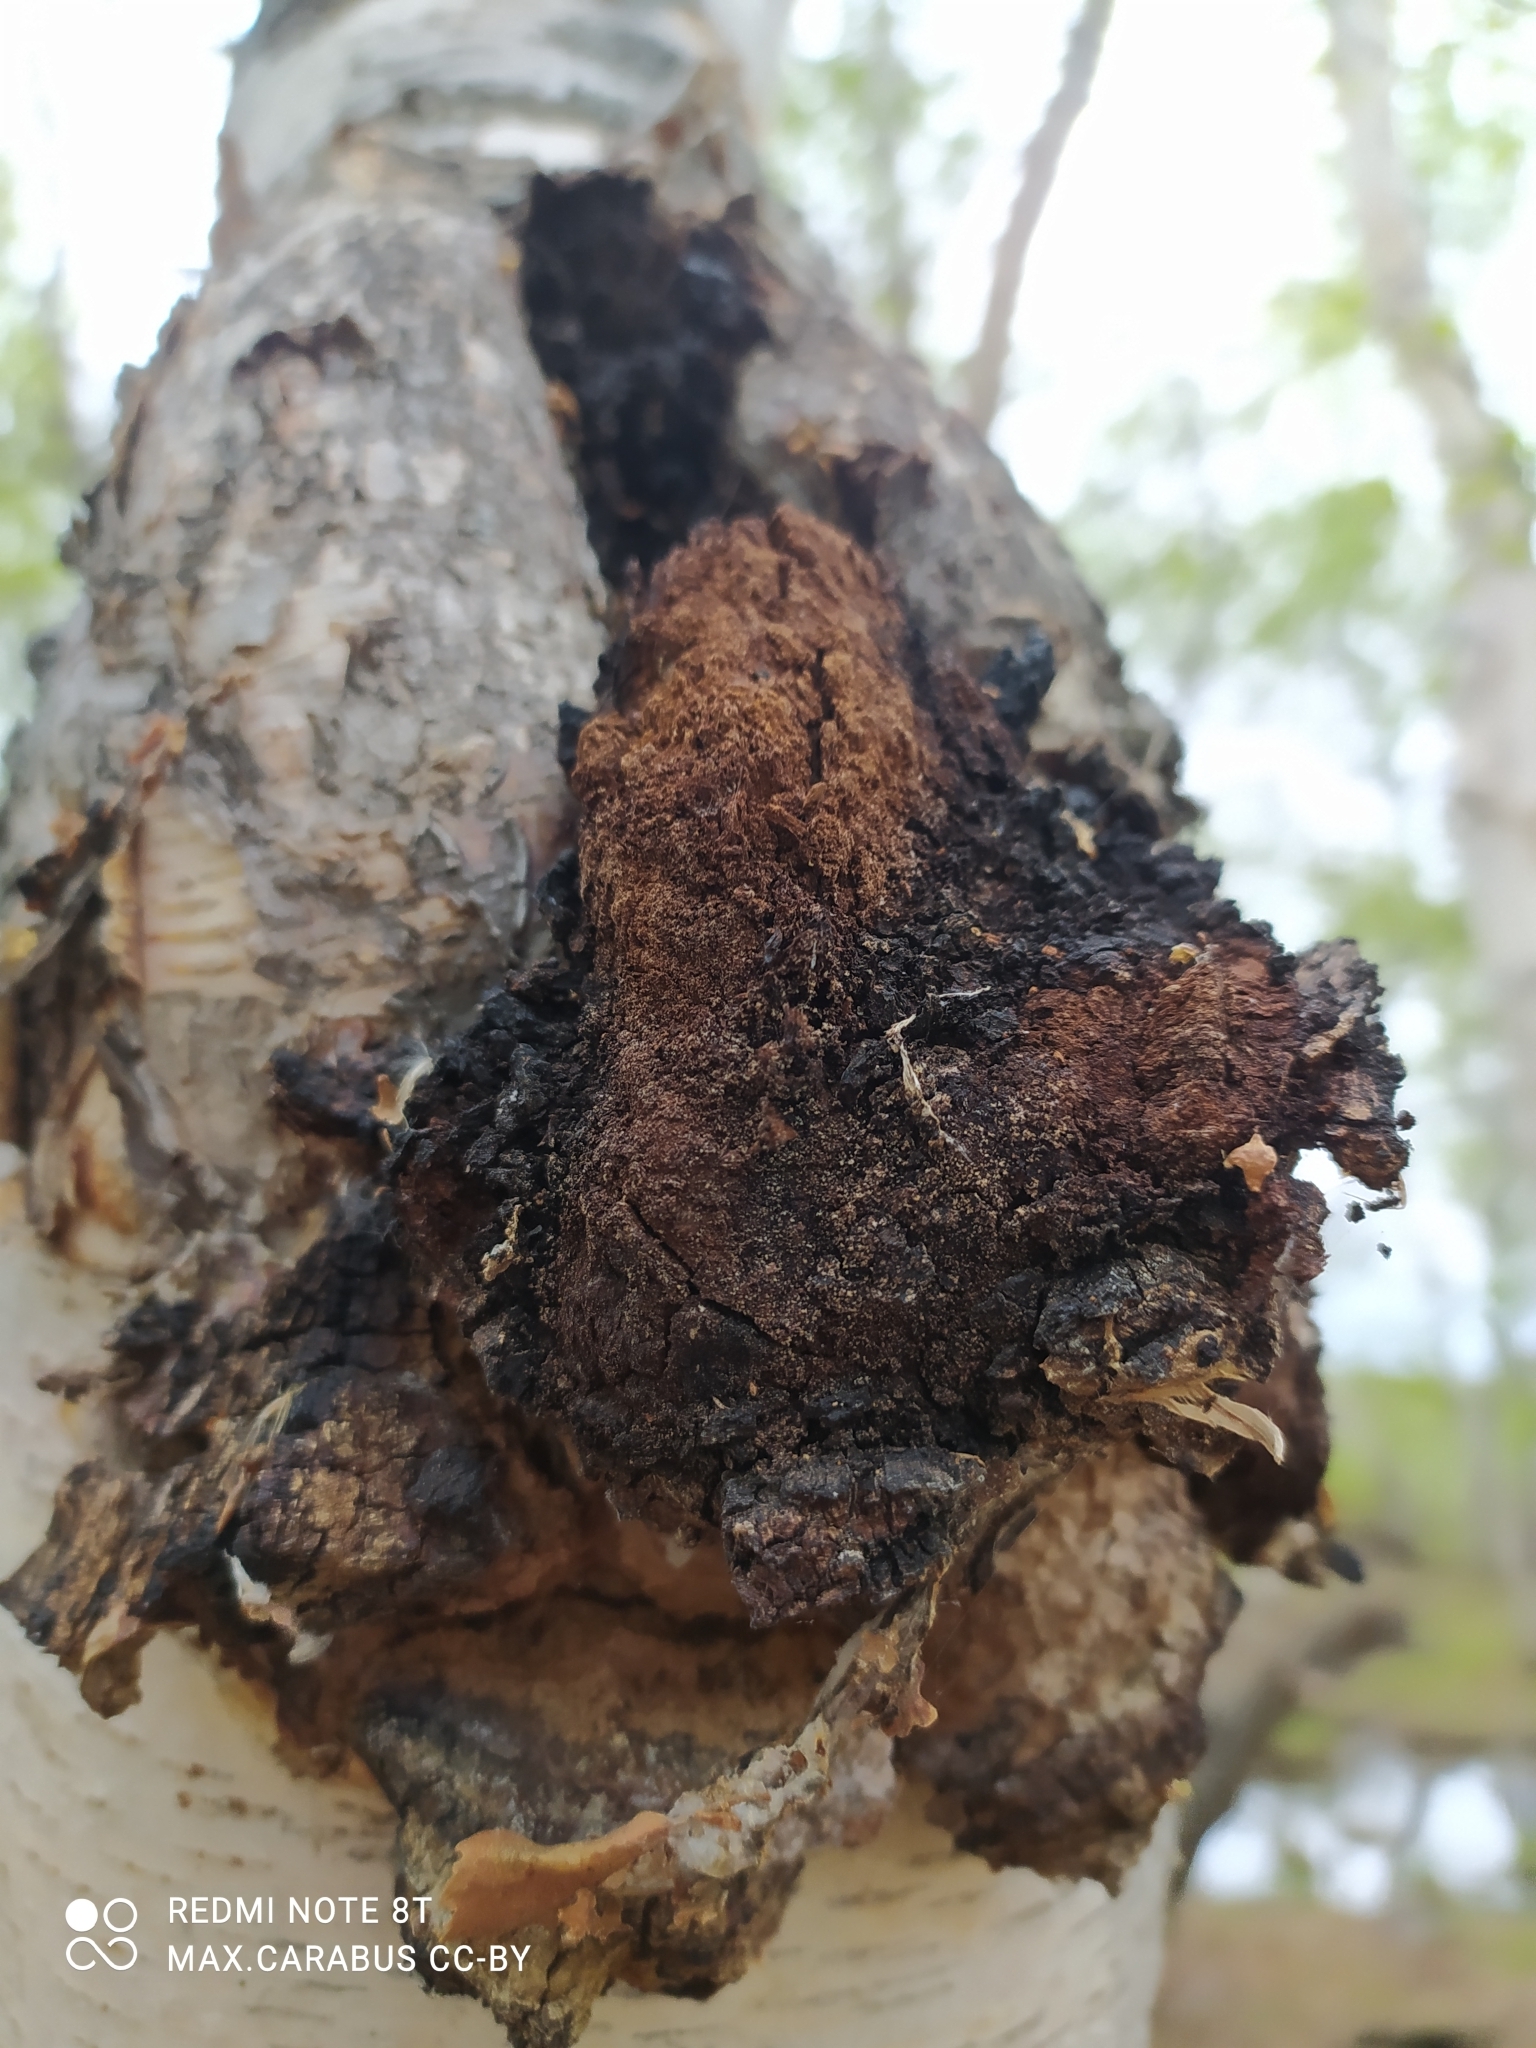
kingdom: Fungi
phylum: Basidiomycota
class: Agaricomycetes
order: Hymenochaetales
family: Hymenochaetaceae
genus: Inonotus
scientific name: Inonotus obliquus
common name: Chaga
